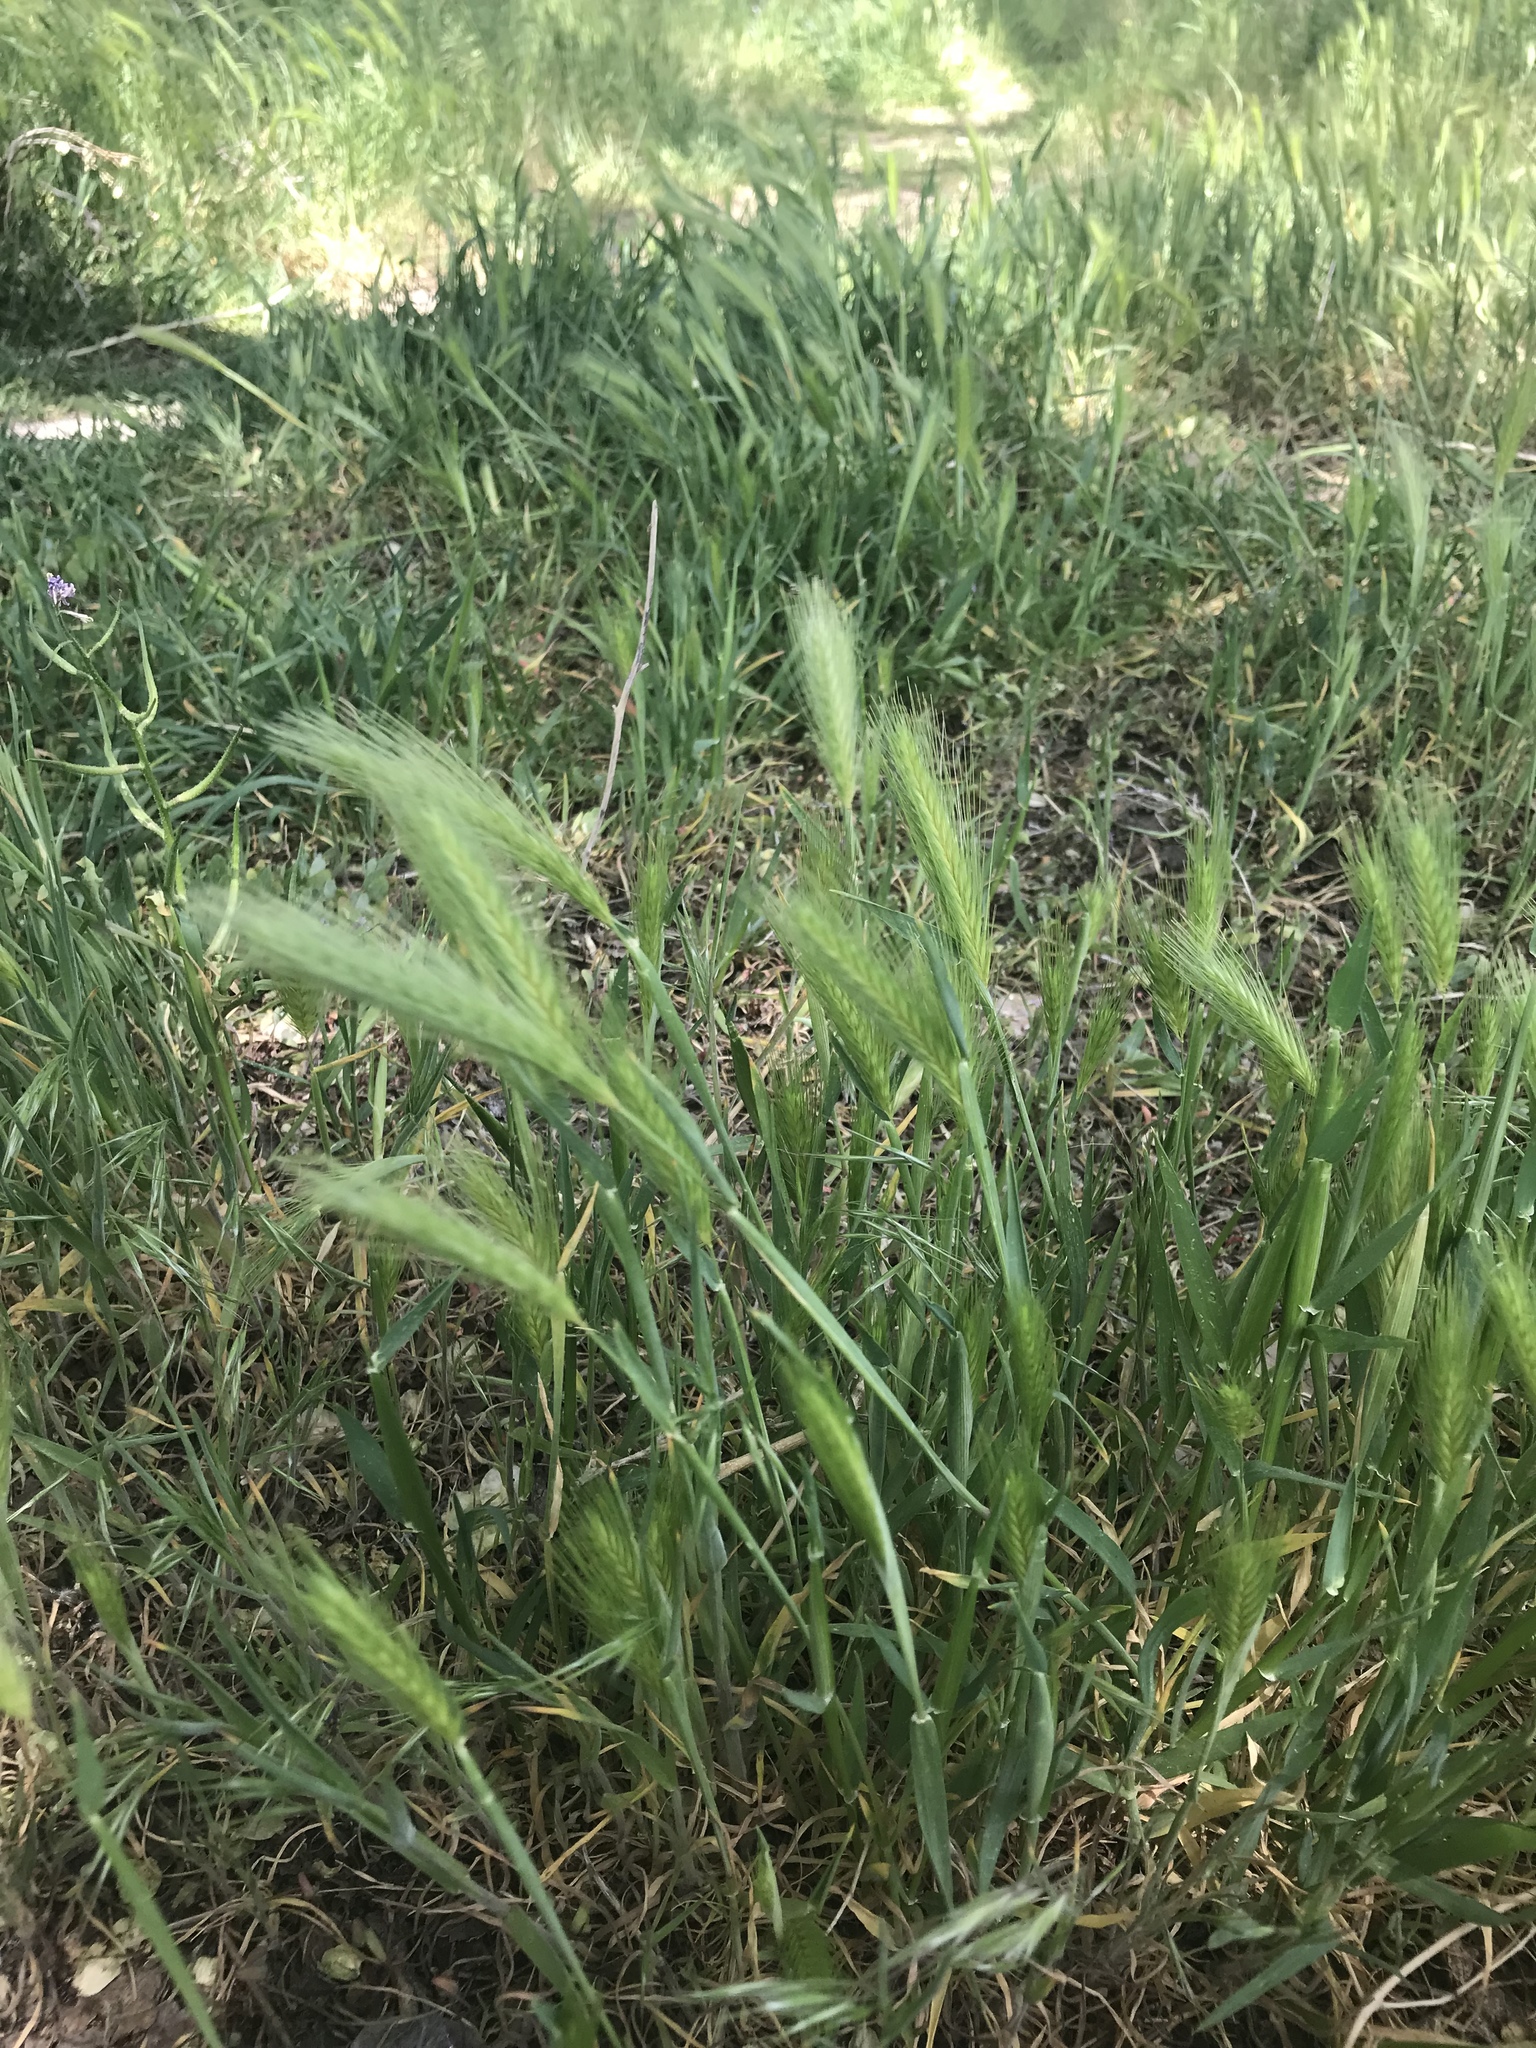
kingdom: Plantae
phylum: Tracheophyta
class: Liliopsida
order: Poales
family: Poaceae
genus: Hordeum
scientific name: Hordeum murinum
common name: Wall barley
